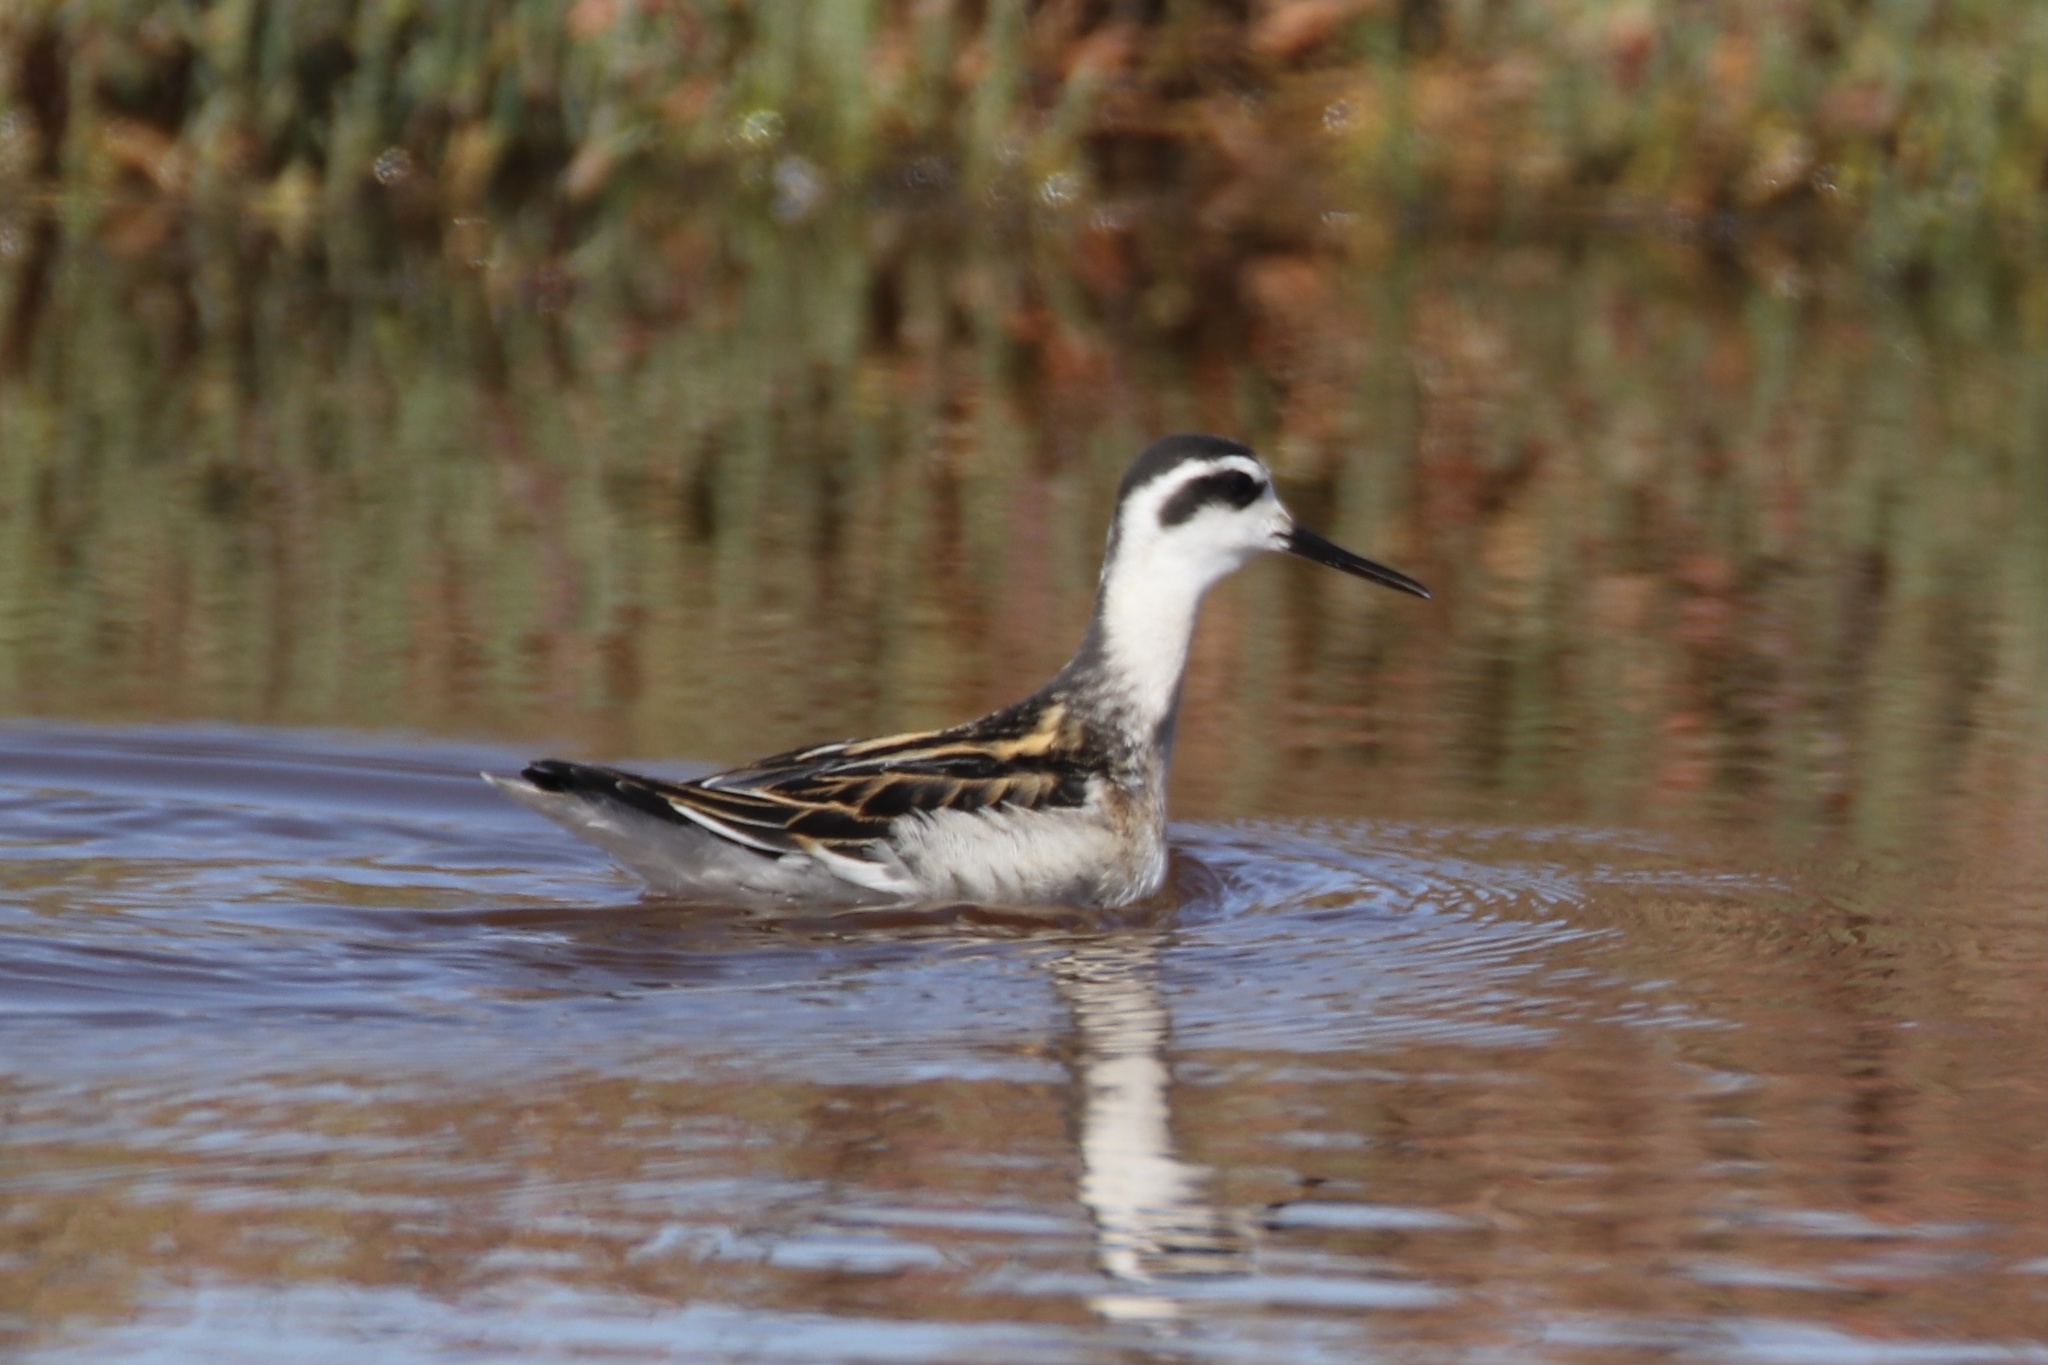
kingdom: Animalia
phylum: Chordata
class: Aves
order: Charadriiformes
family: Scolopacidae
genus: Phalaropus
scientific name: Phalaropus lobatus
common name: Red-necked phalarope
